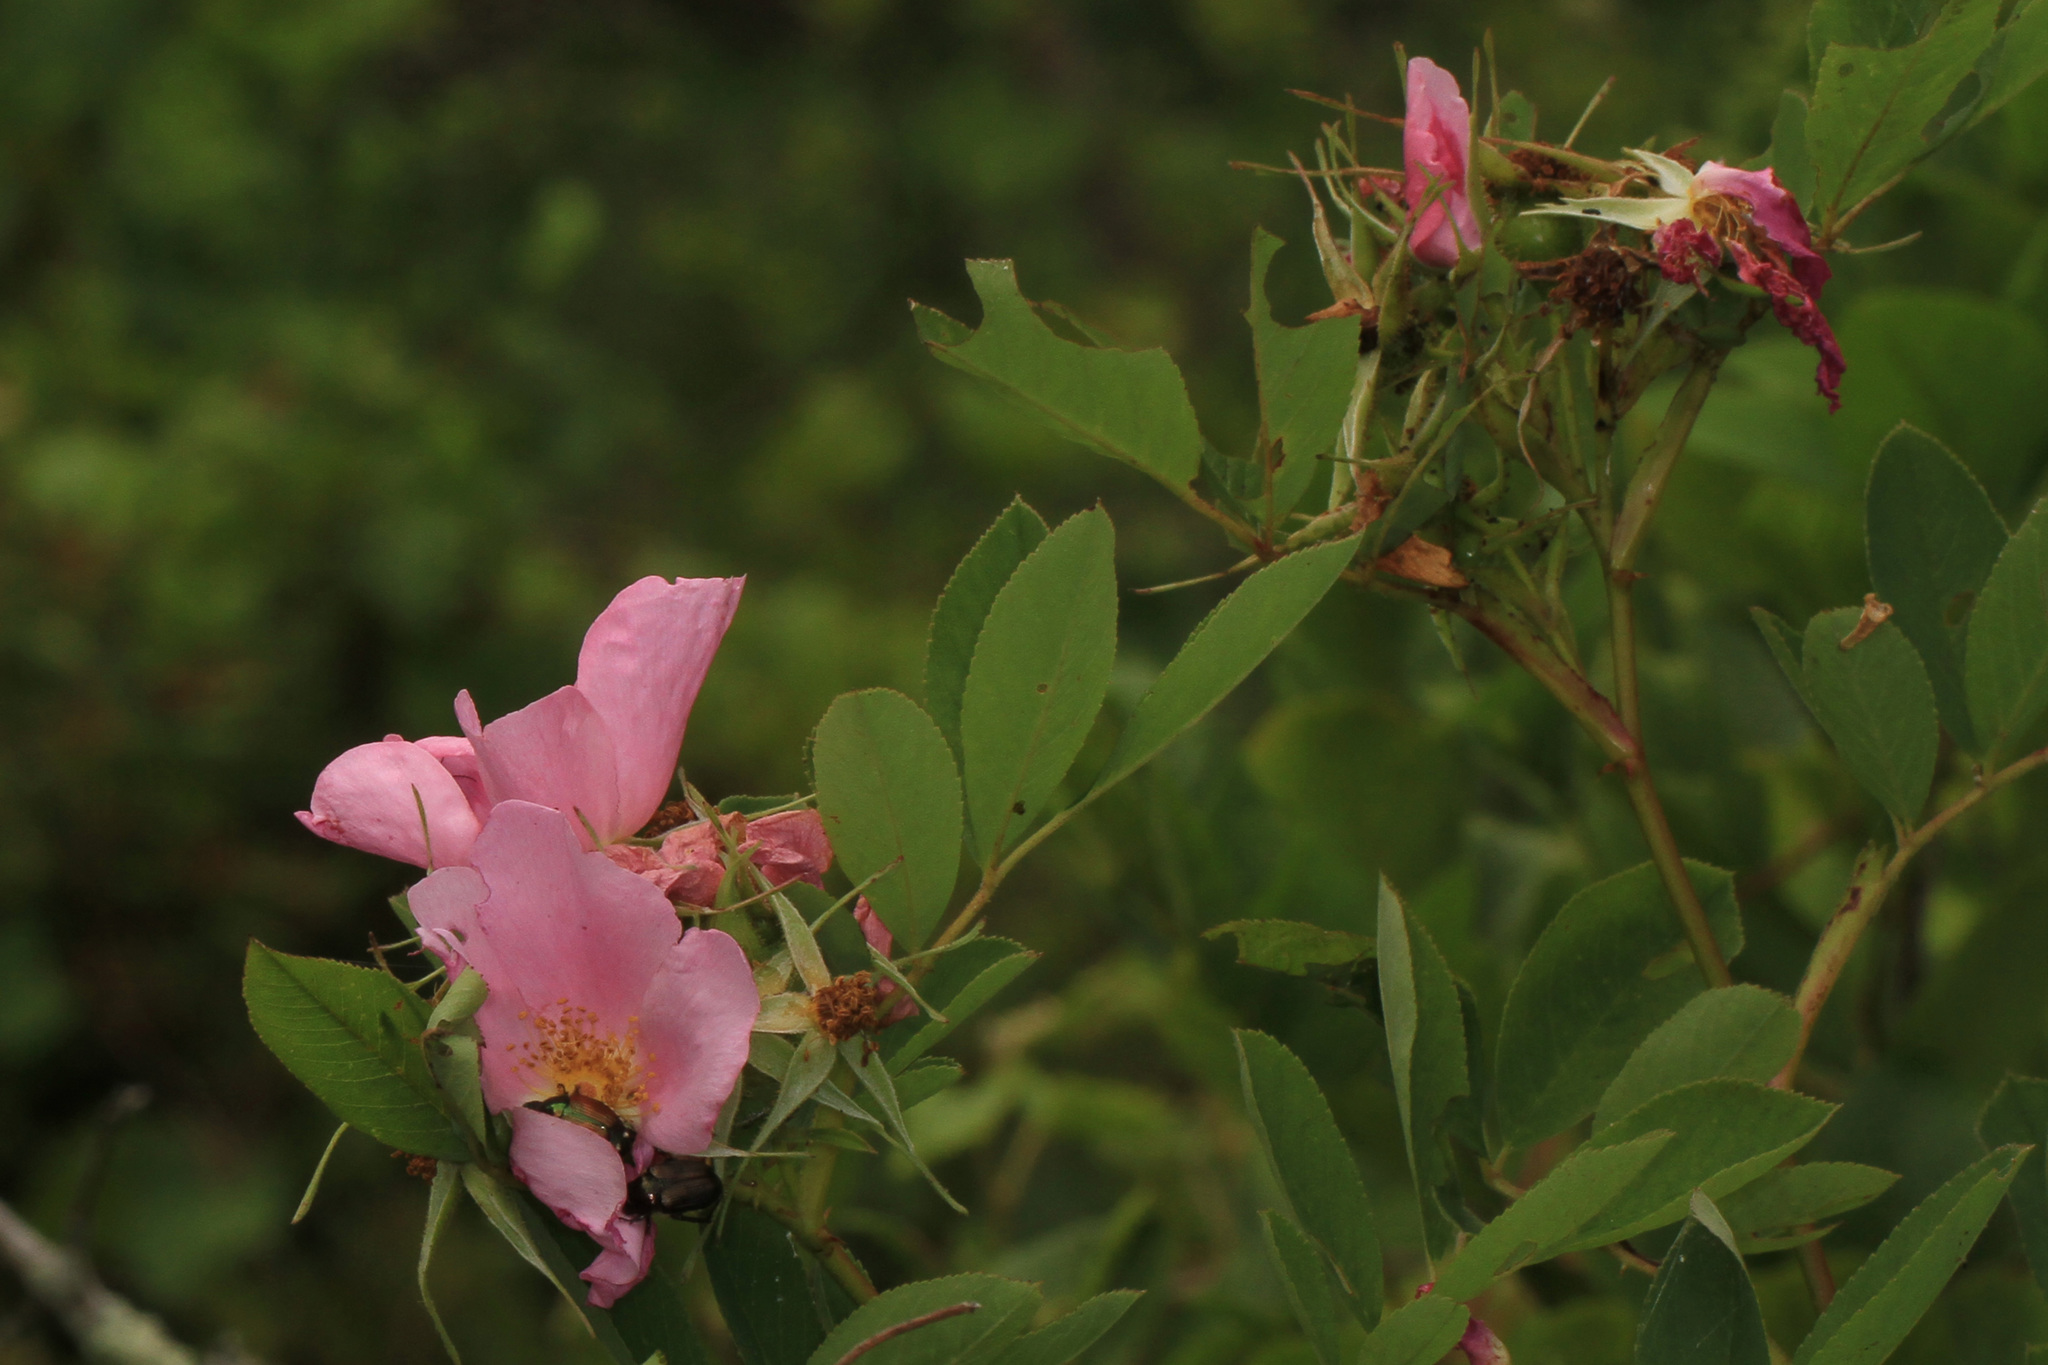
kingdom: Plantae
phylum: Tracheophyta
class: Magnoliopsida
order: Rosales
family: Rosaceae
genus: Rosa
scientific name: Rosa palustris
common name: Swamp rose
